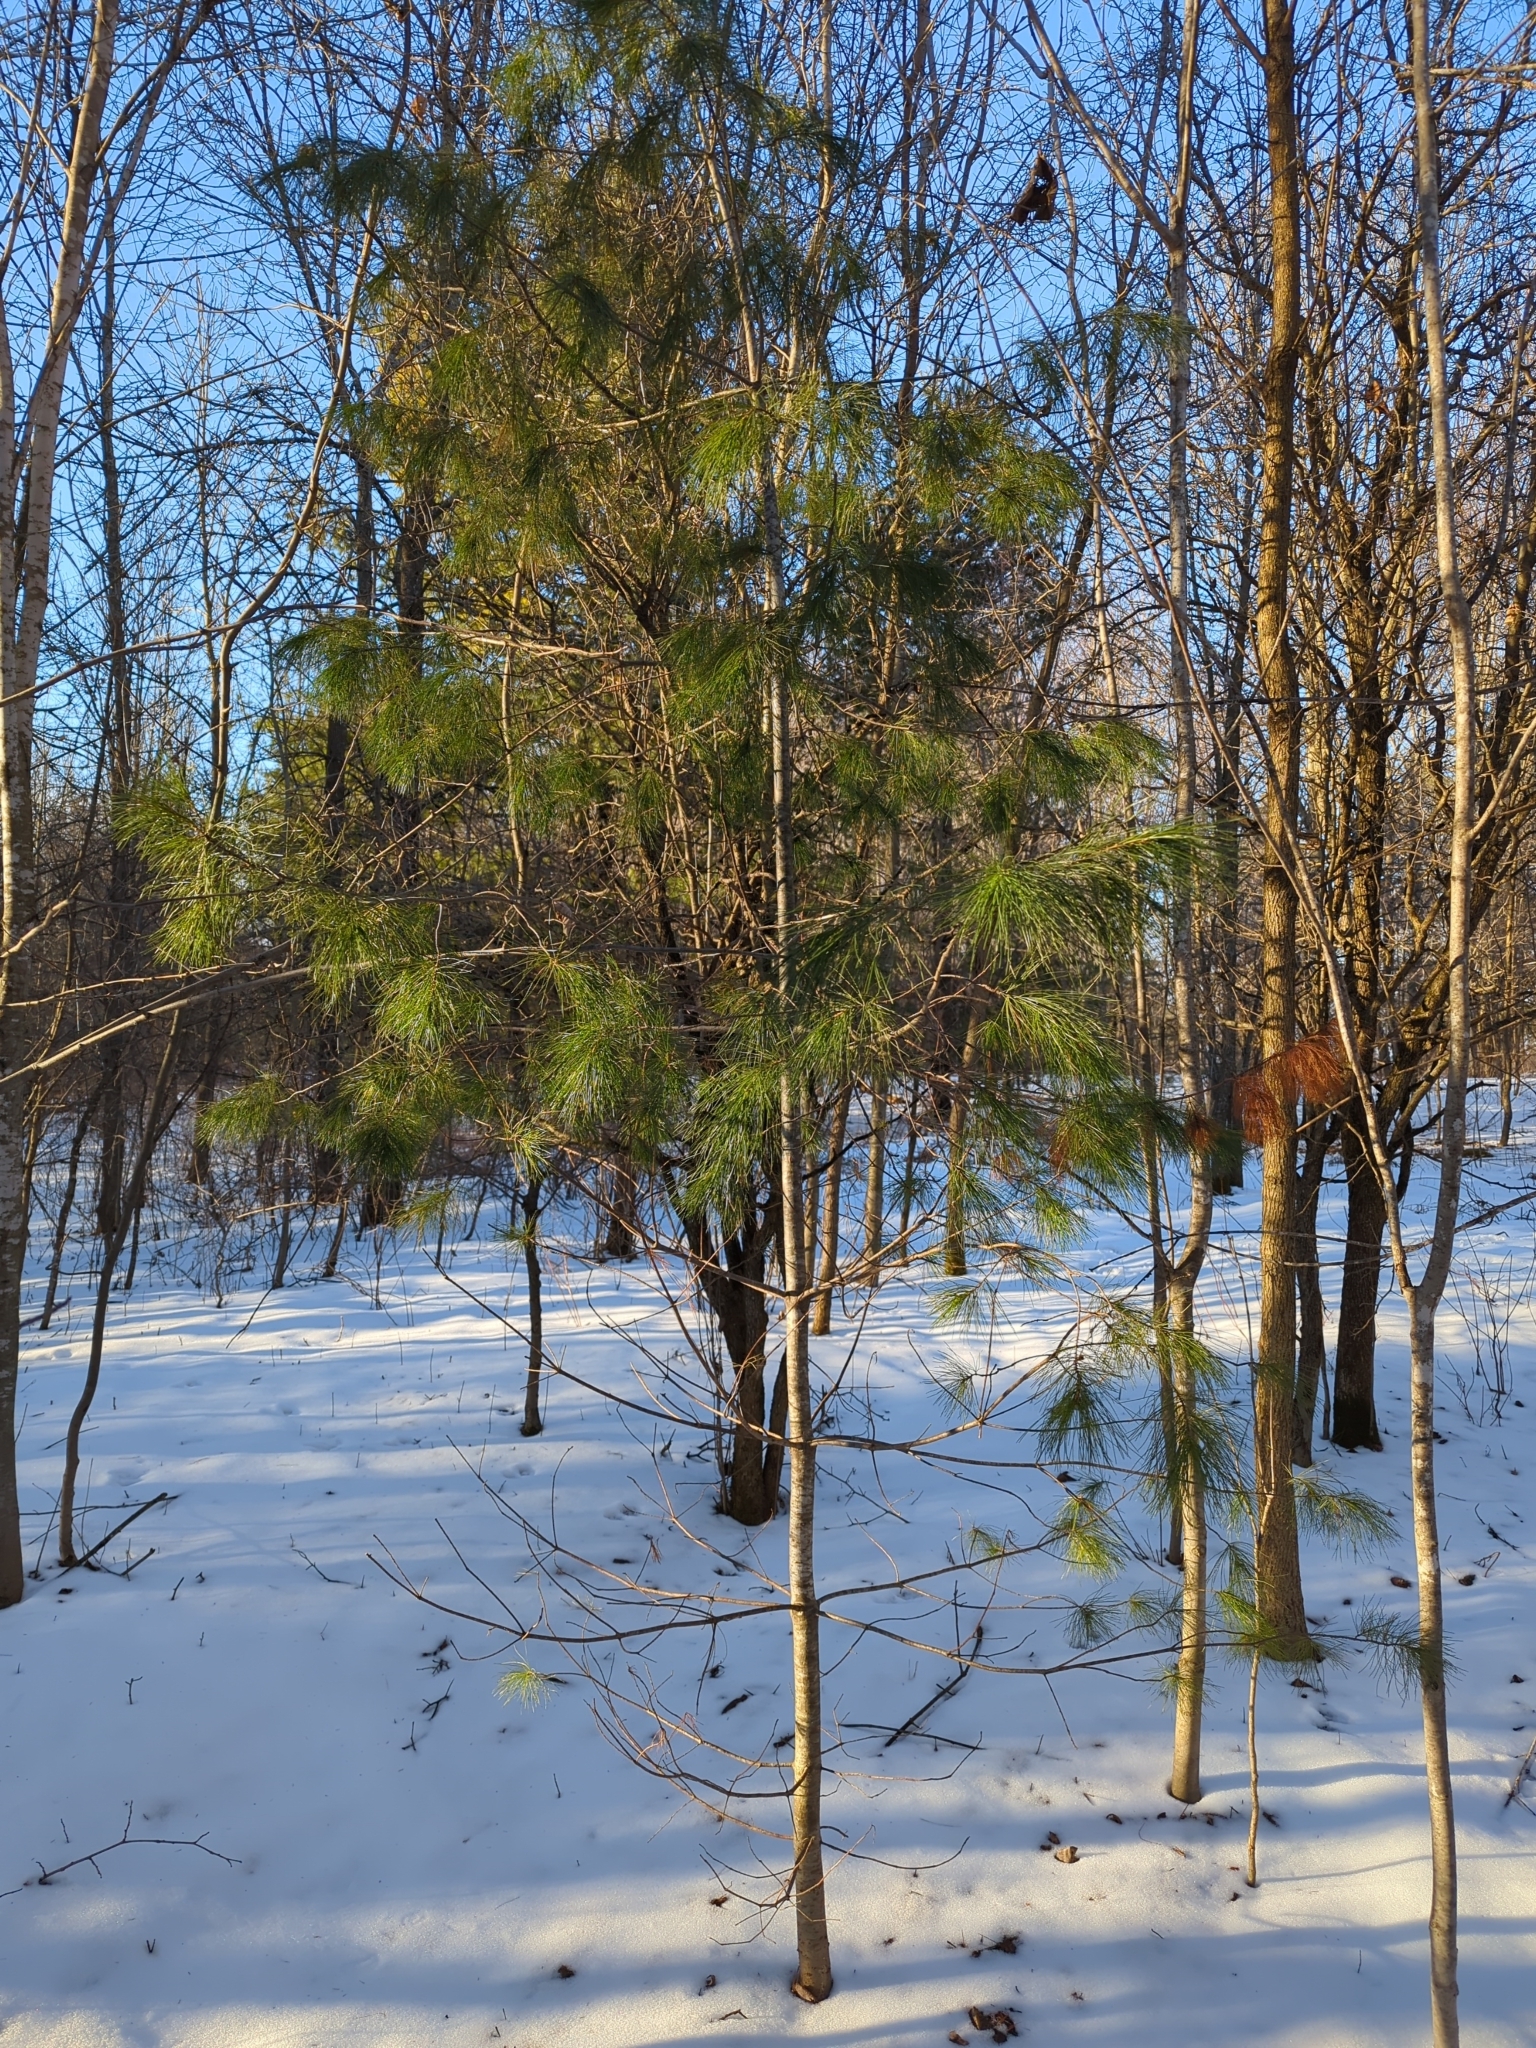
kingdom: Plantae
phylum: Tracheophyta
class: Pinopsida
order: Pinales
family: Pinaceae
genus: Pinus
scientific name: Pinus strobus
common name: Weymouth pine
